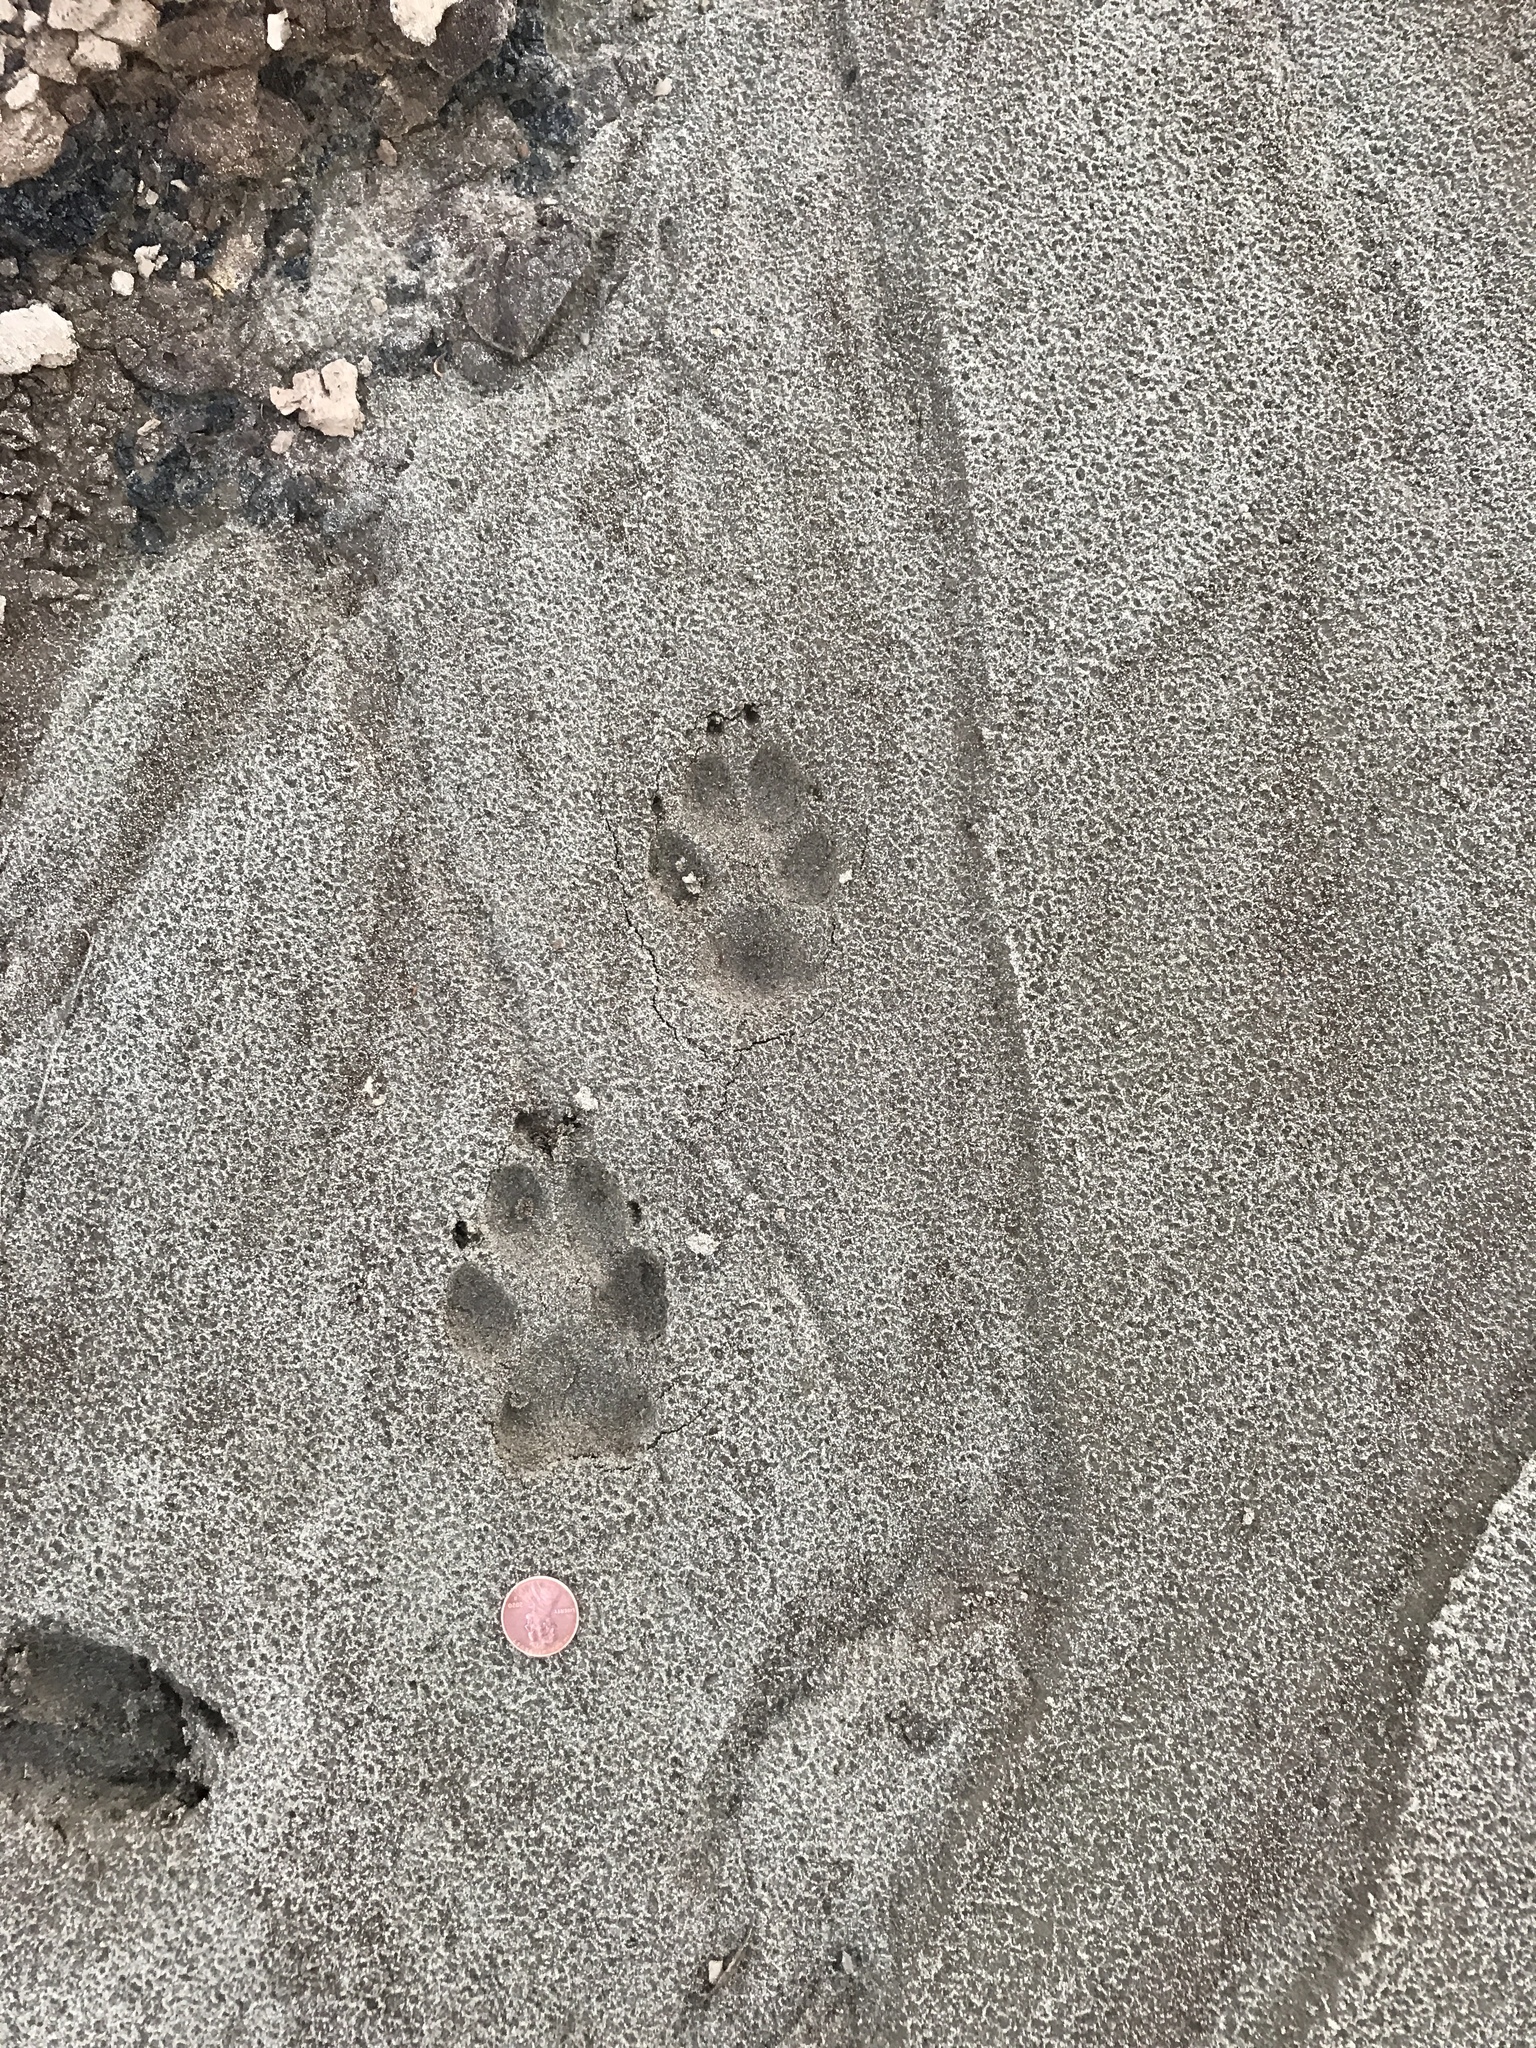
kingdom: Animalia
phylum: Chordata
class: Mammalia
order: Carnivora
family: Canidae
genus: Canis
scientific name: Canis latrans
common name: Coyote
